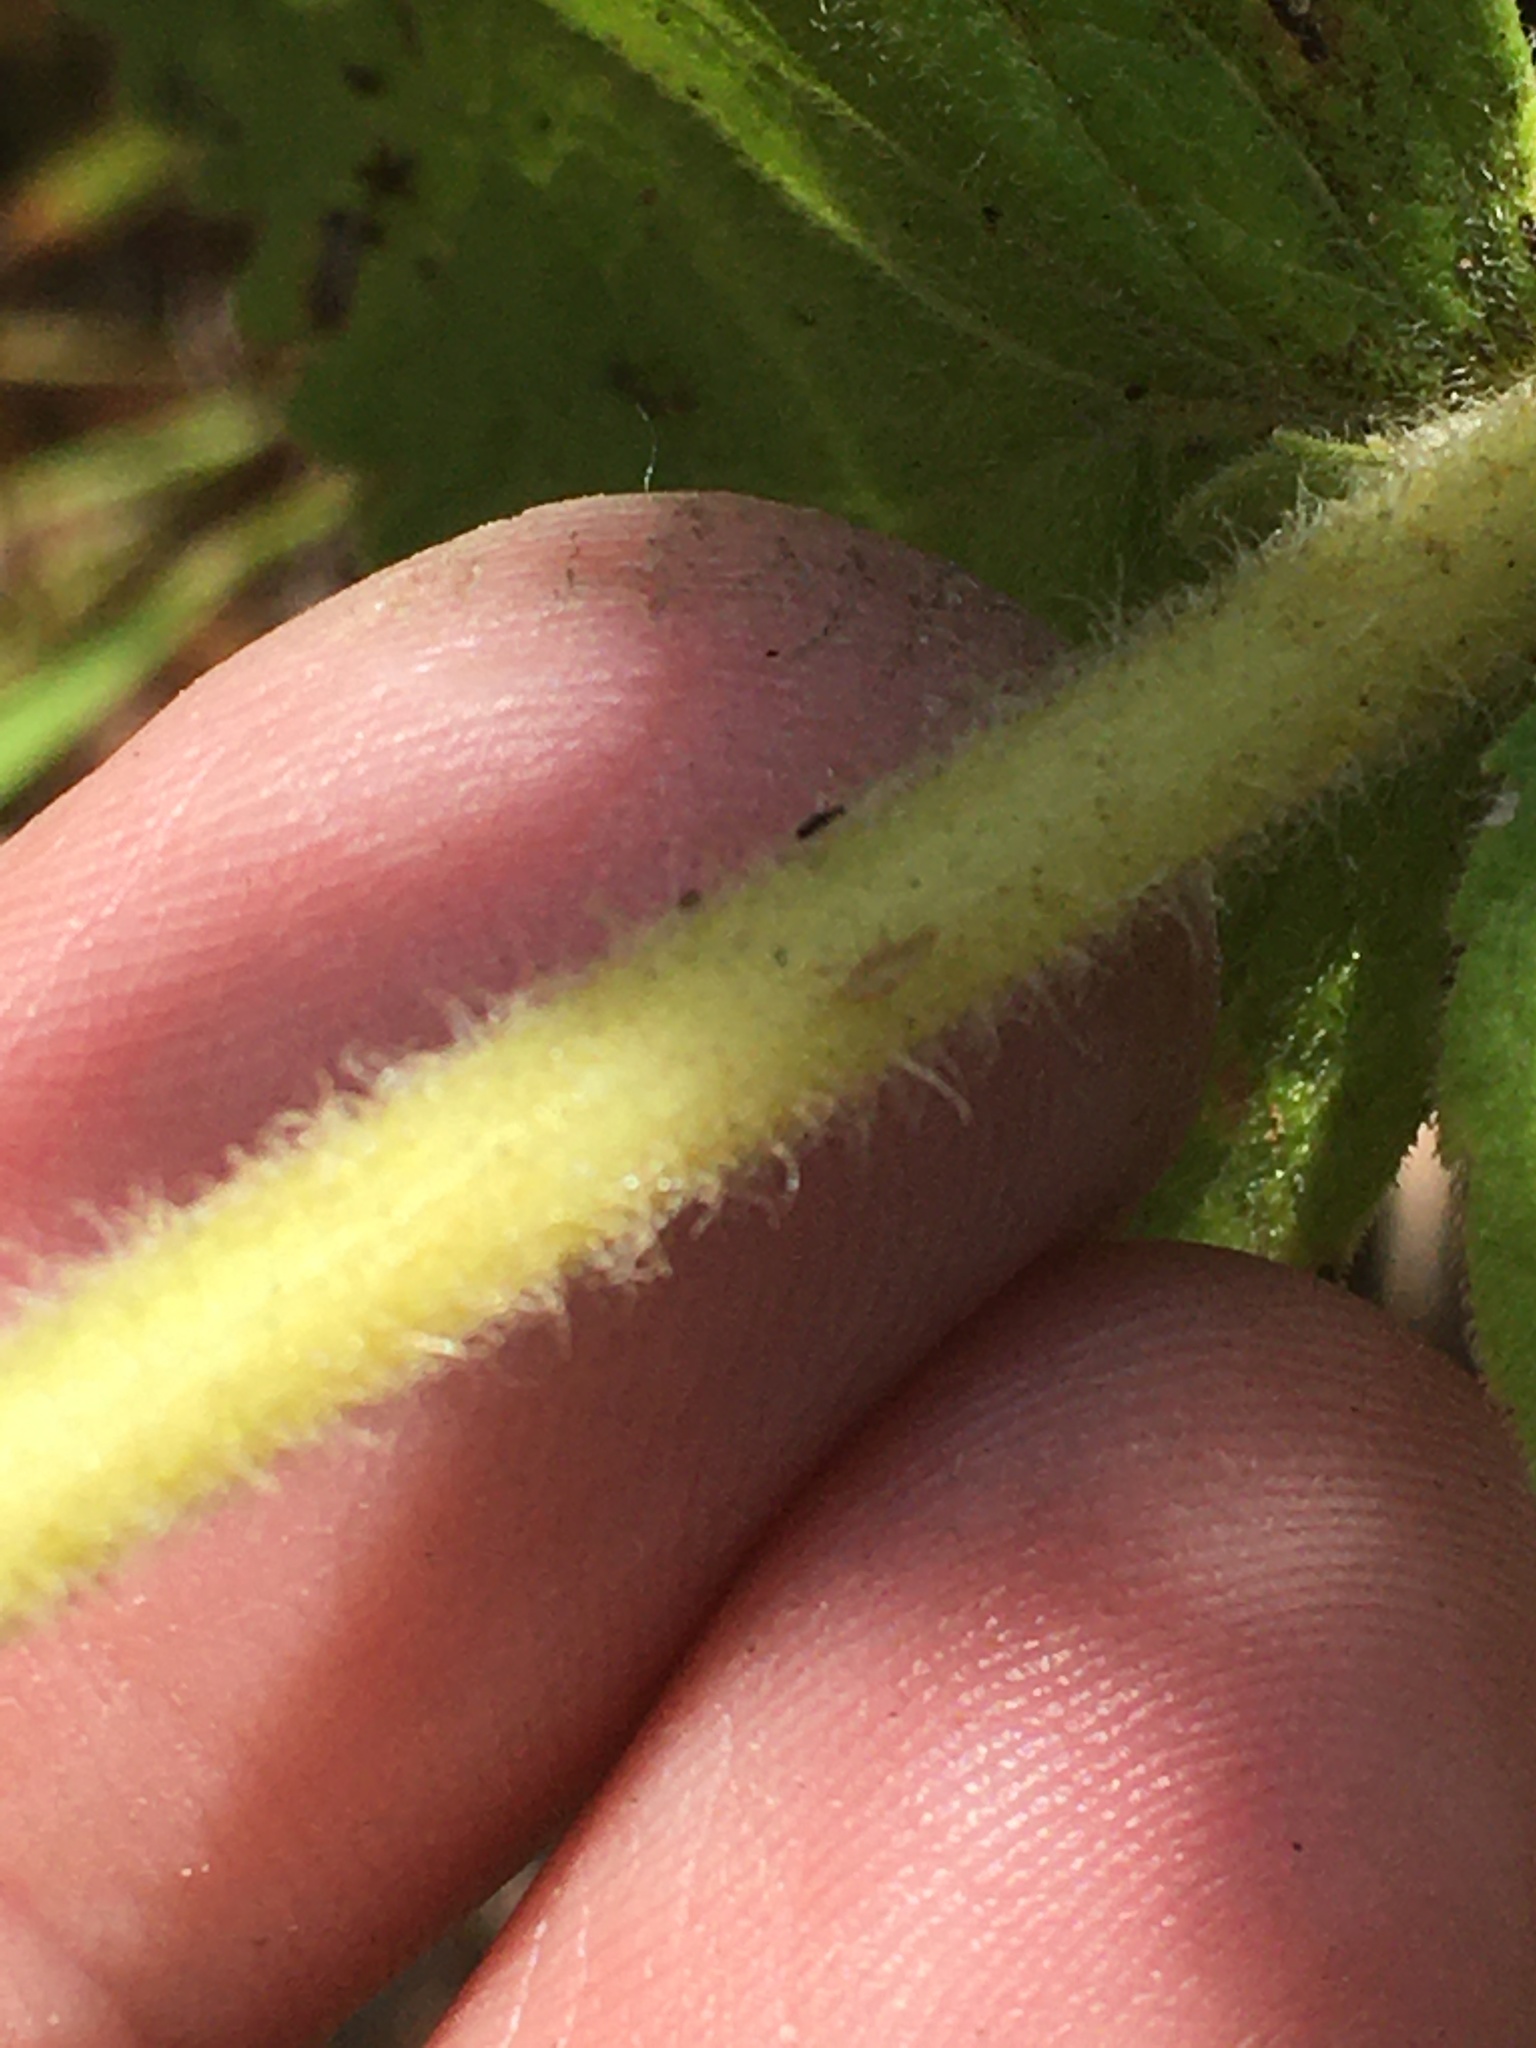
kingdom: Plantae
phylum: Tracheophyta
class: Magnoliopsida
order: Asterales
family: Asteraceae
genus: Eupatorium
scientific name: Eupatorium rotundifolium
